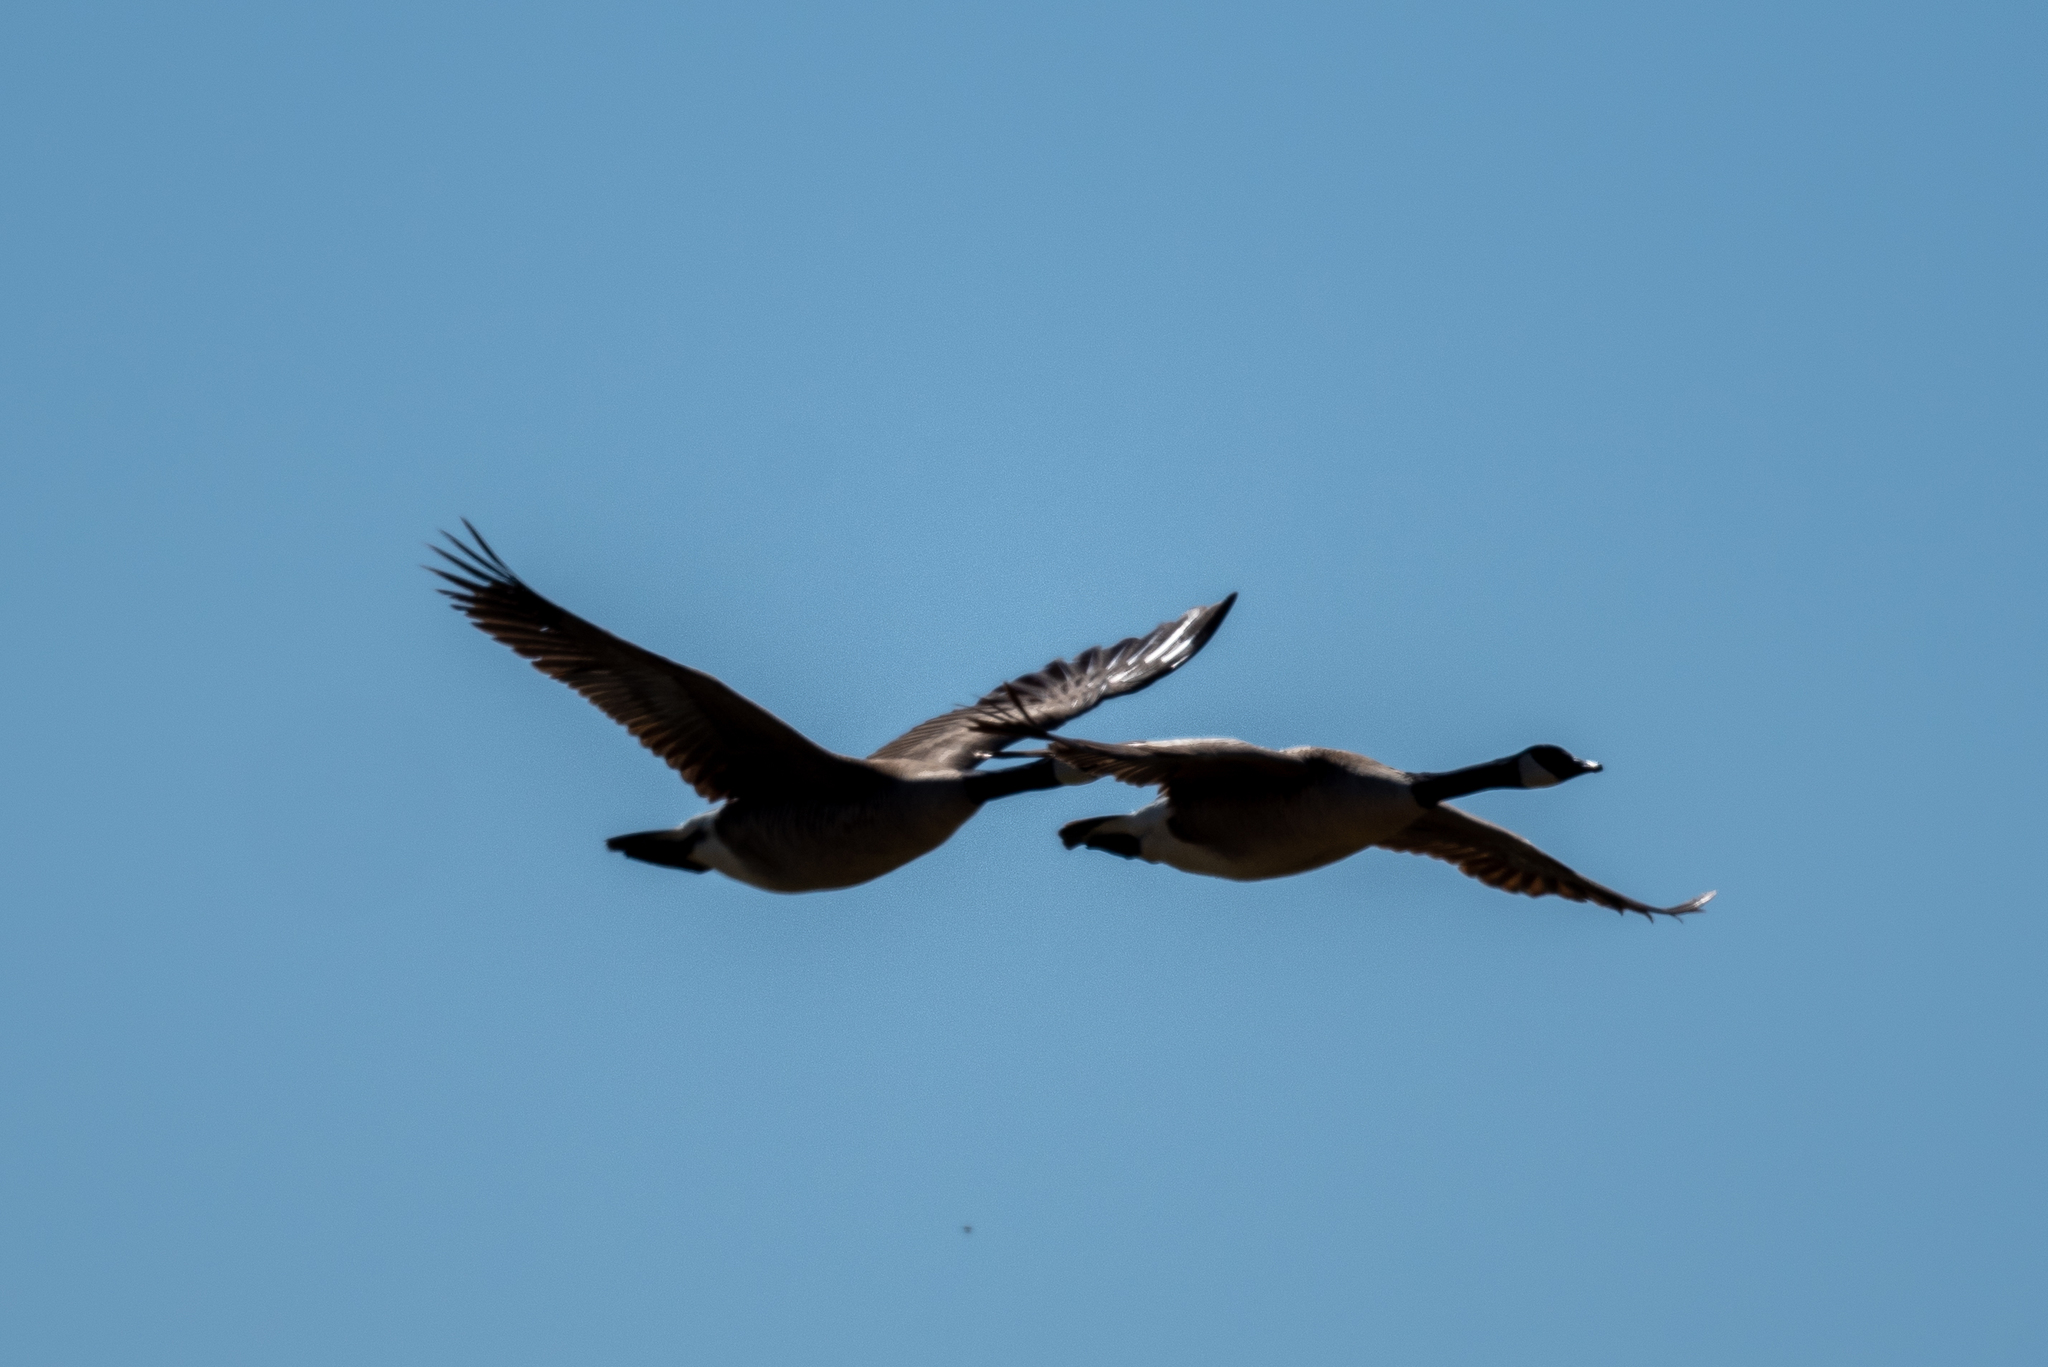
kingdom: Animalia
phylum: Chordata
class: Aves
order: Anseriformes
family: Anatidae
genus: Branta
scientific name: Branta canadensis
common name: Canada goose
